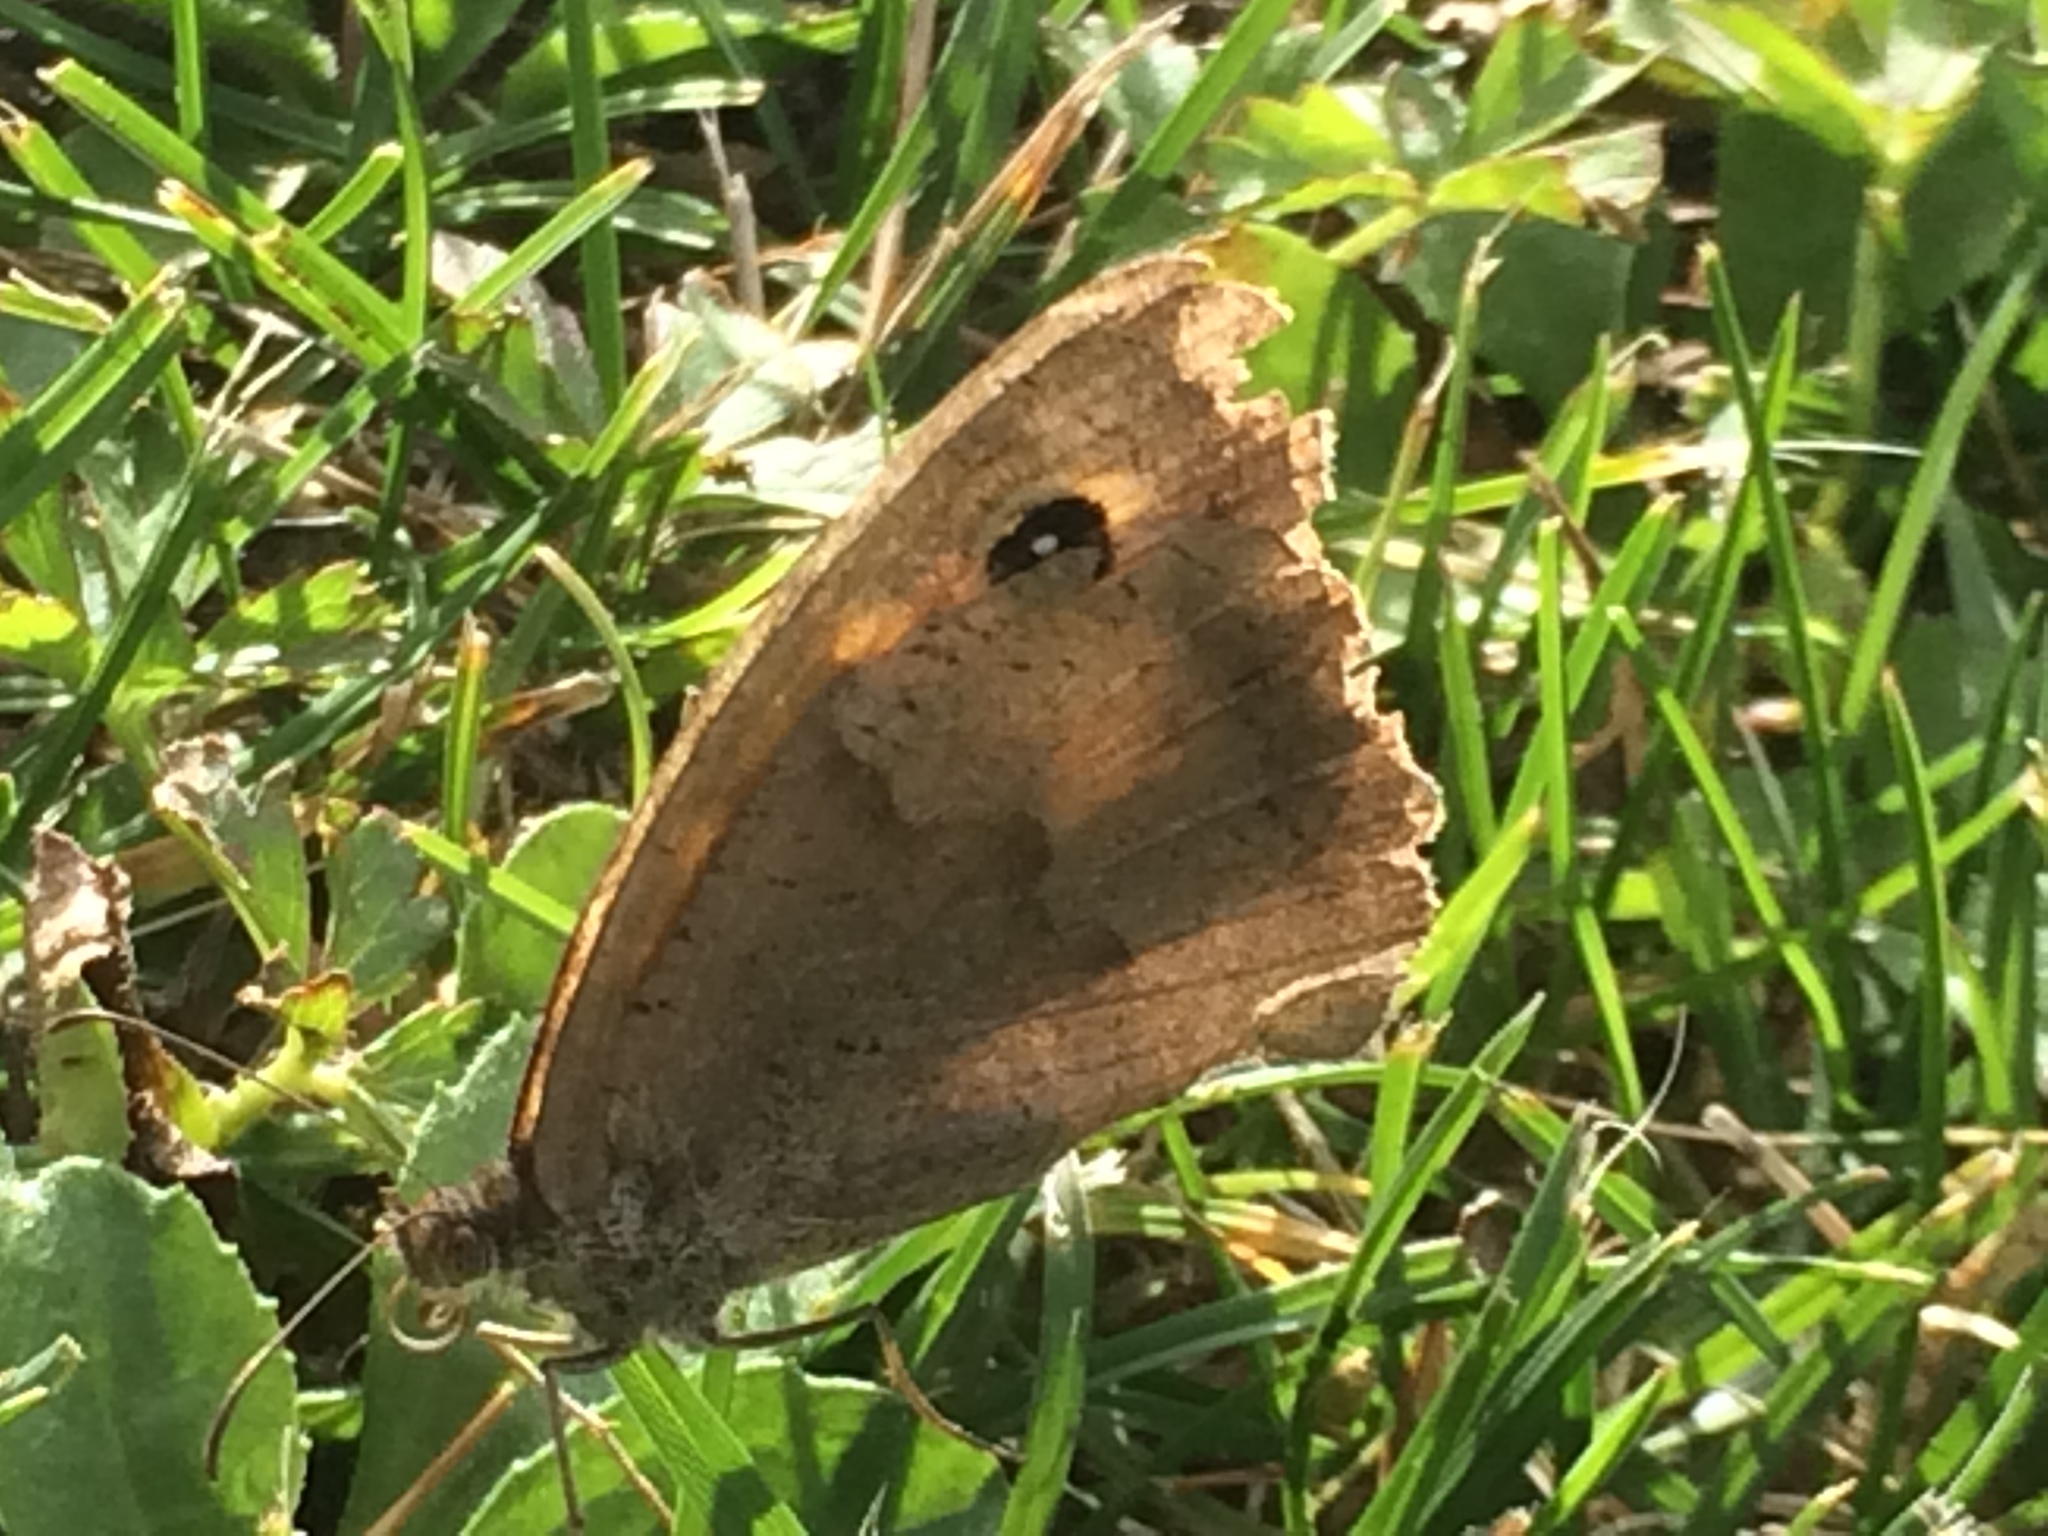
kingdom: Animalia
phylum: Arthropoda
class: Insecta
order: Lepidoptera
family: Nymphalidae
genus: Maniola
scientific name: Maniola jurtina
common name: Meadow brown
